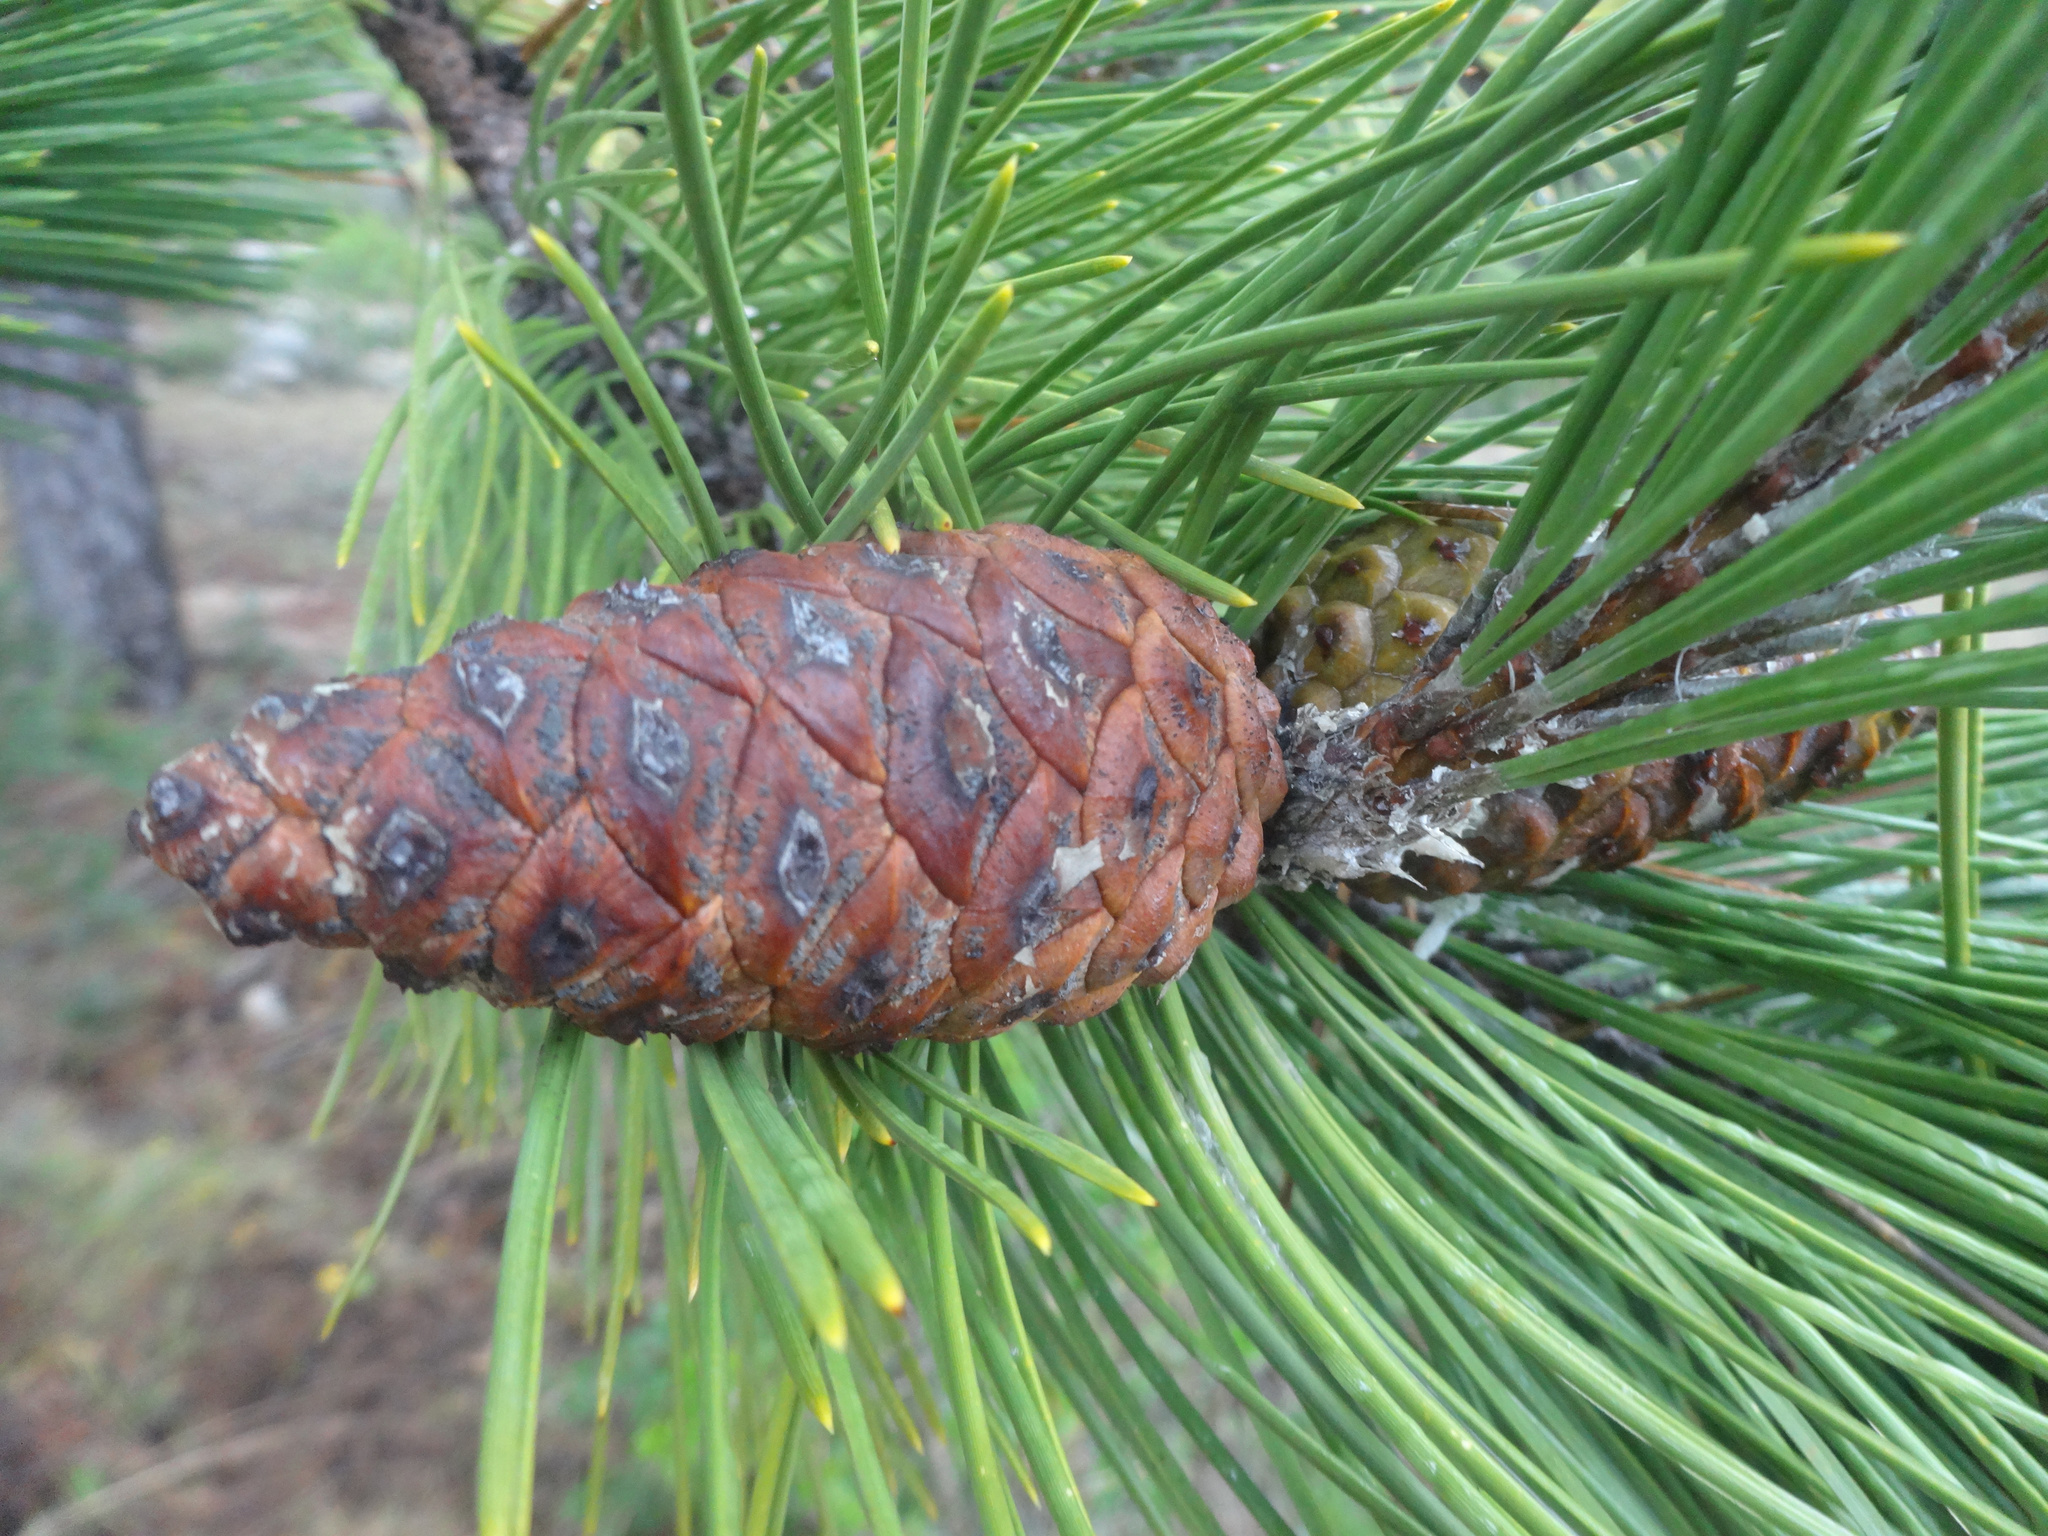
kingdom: Plantae
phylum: Tracheophyta
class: Pinopsida
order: Pinales
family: Pinaceae
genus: Pinus
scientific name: Pinus pinaster
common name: Maritime pine
